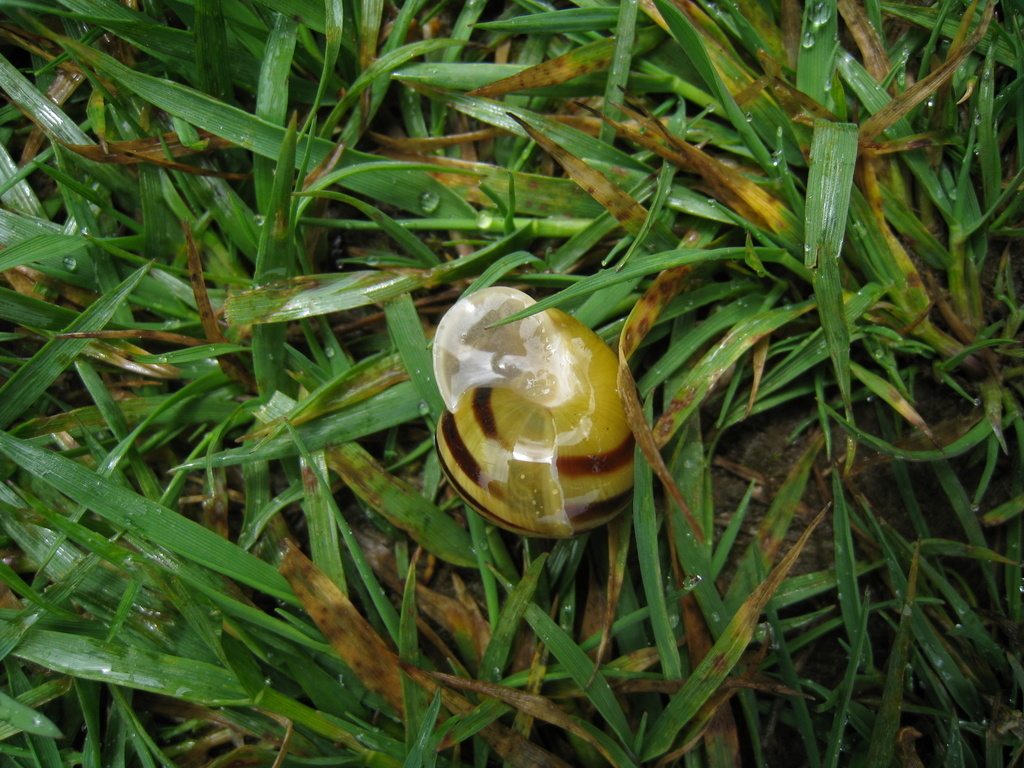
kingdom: Animalia
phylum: Mollusca
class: Gastropoda
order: Stylommatophora
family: Helicidae
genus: Cepaea
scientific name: Cepaea hortensis
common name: White-lip gardensnail
